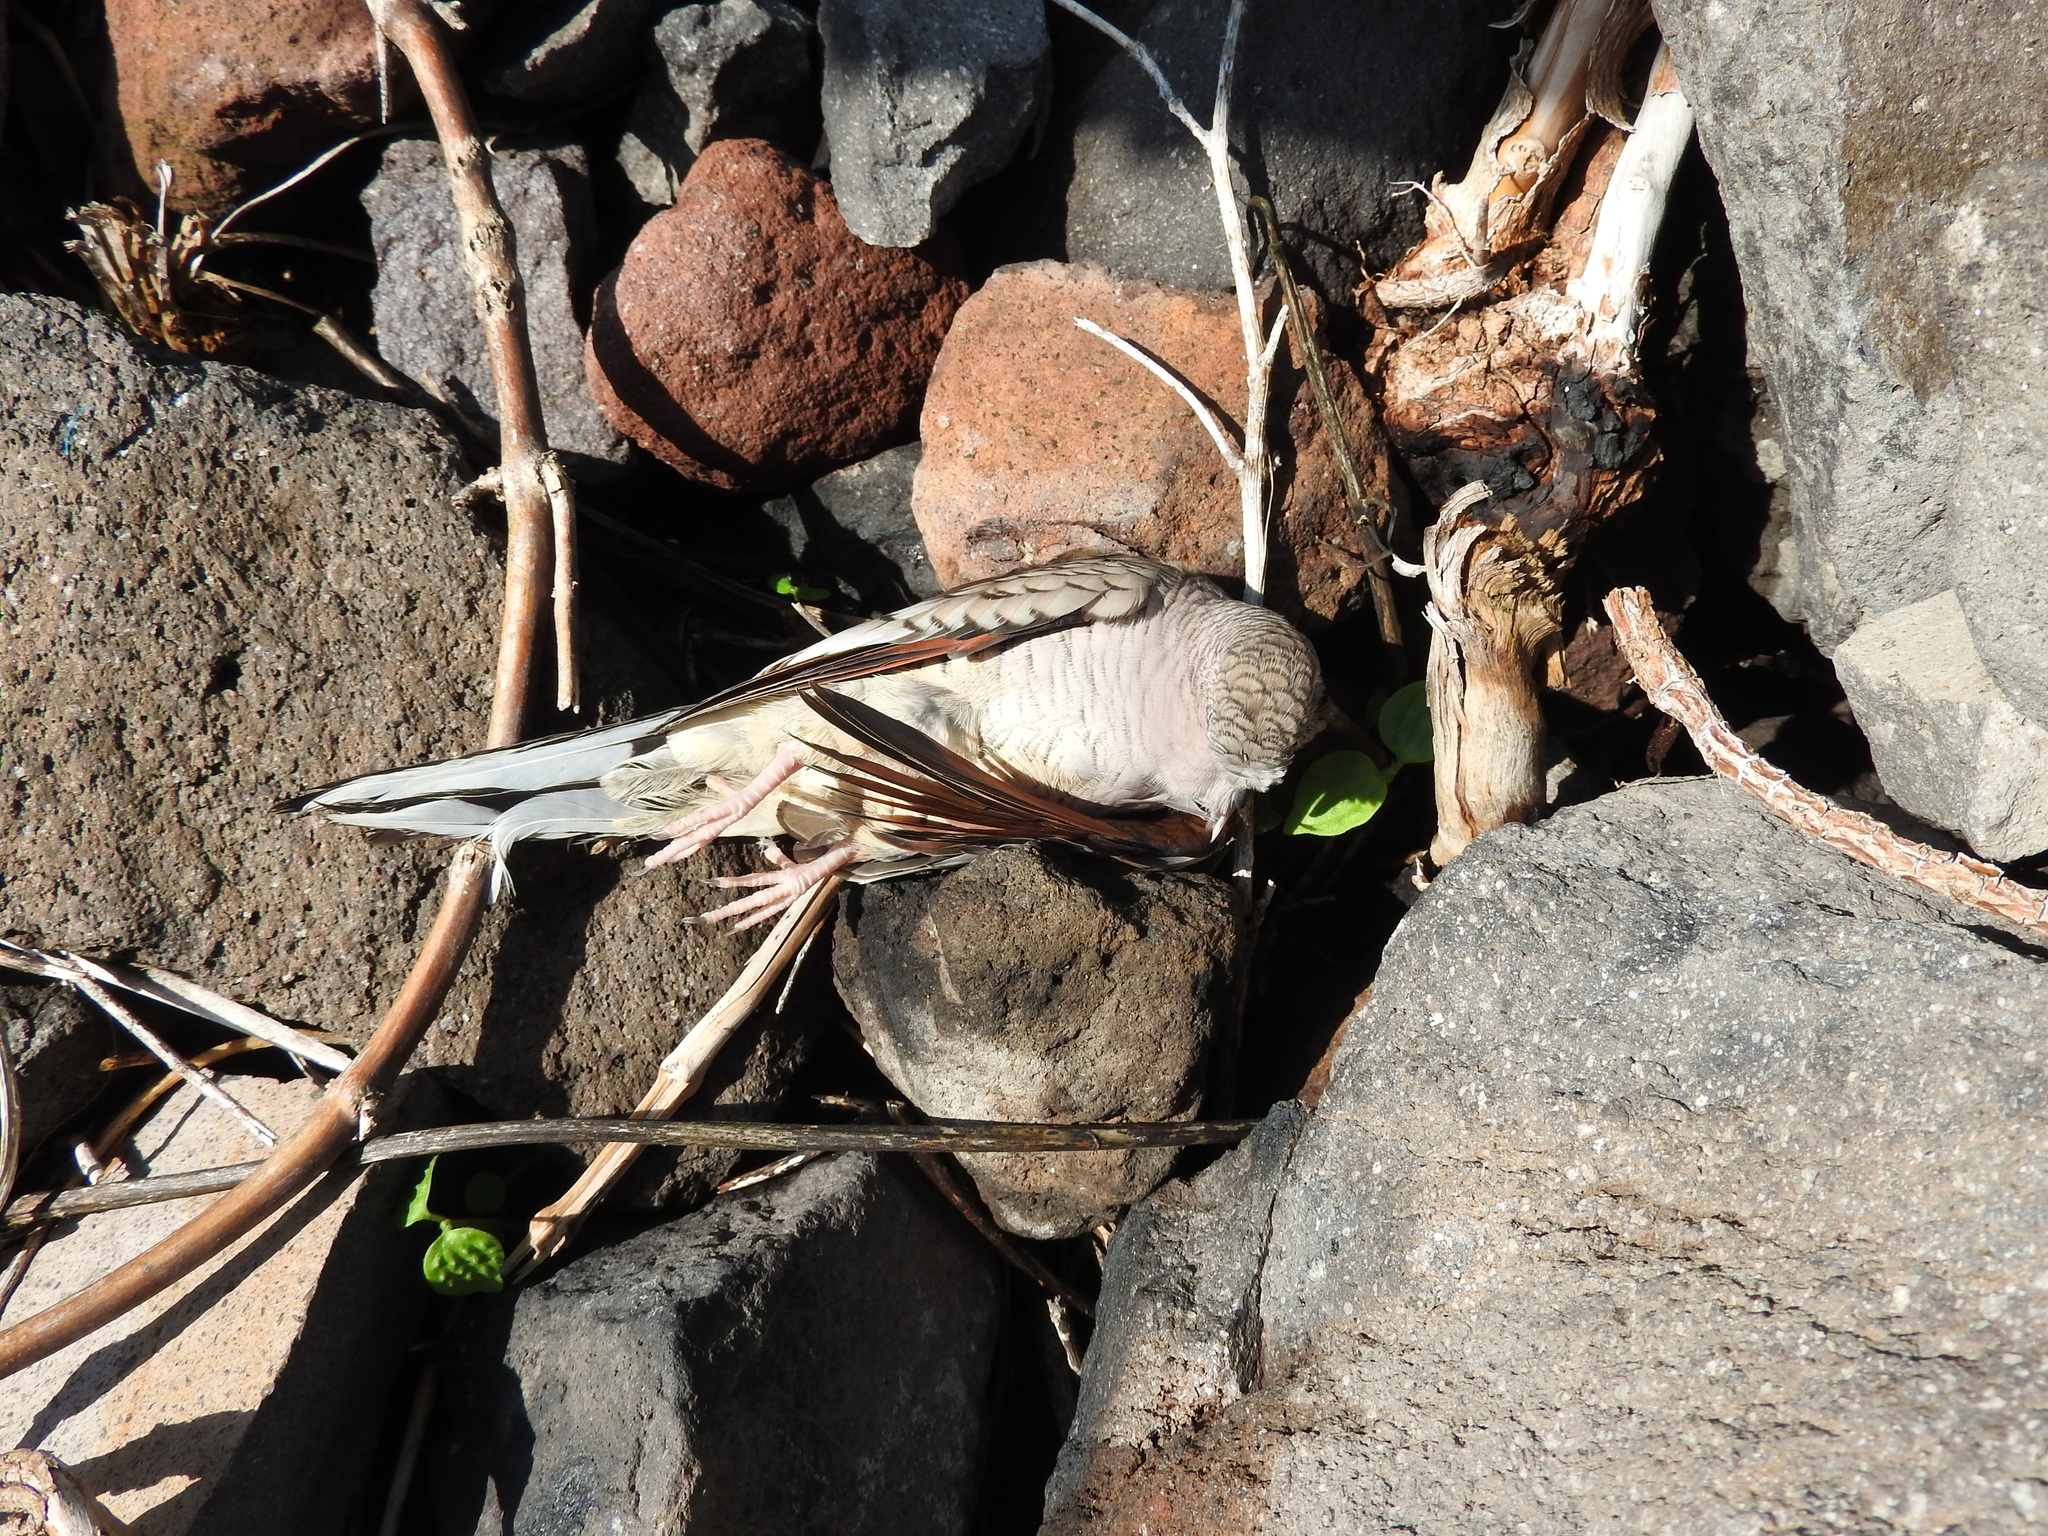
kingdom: Animalia
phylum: Chordata
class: Aves
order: Columbiformes
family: Columbidae
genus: Columbina
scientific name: Columbina inca
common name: Inca dove
